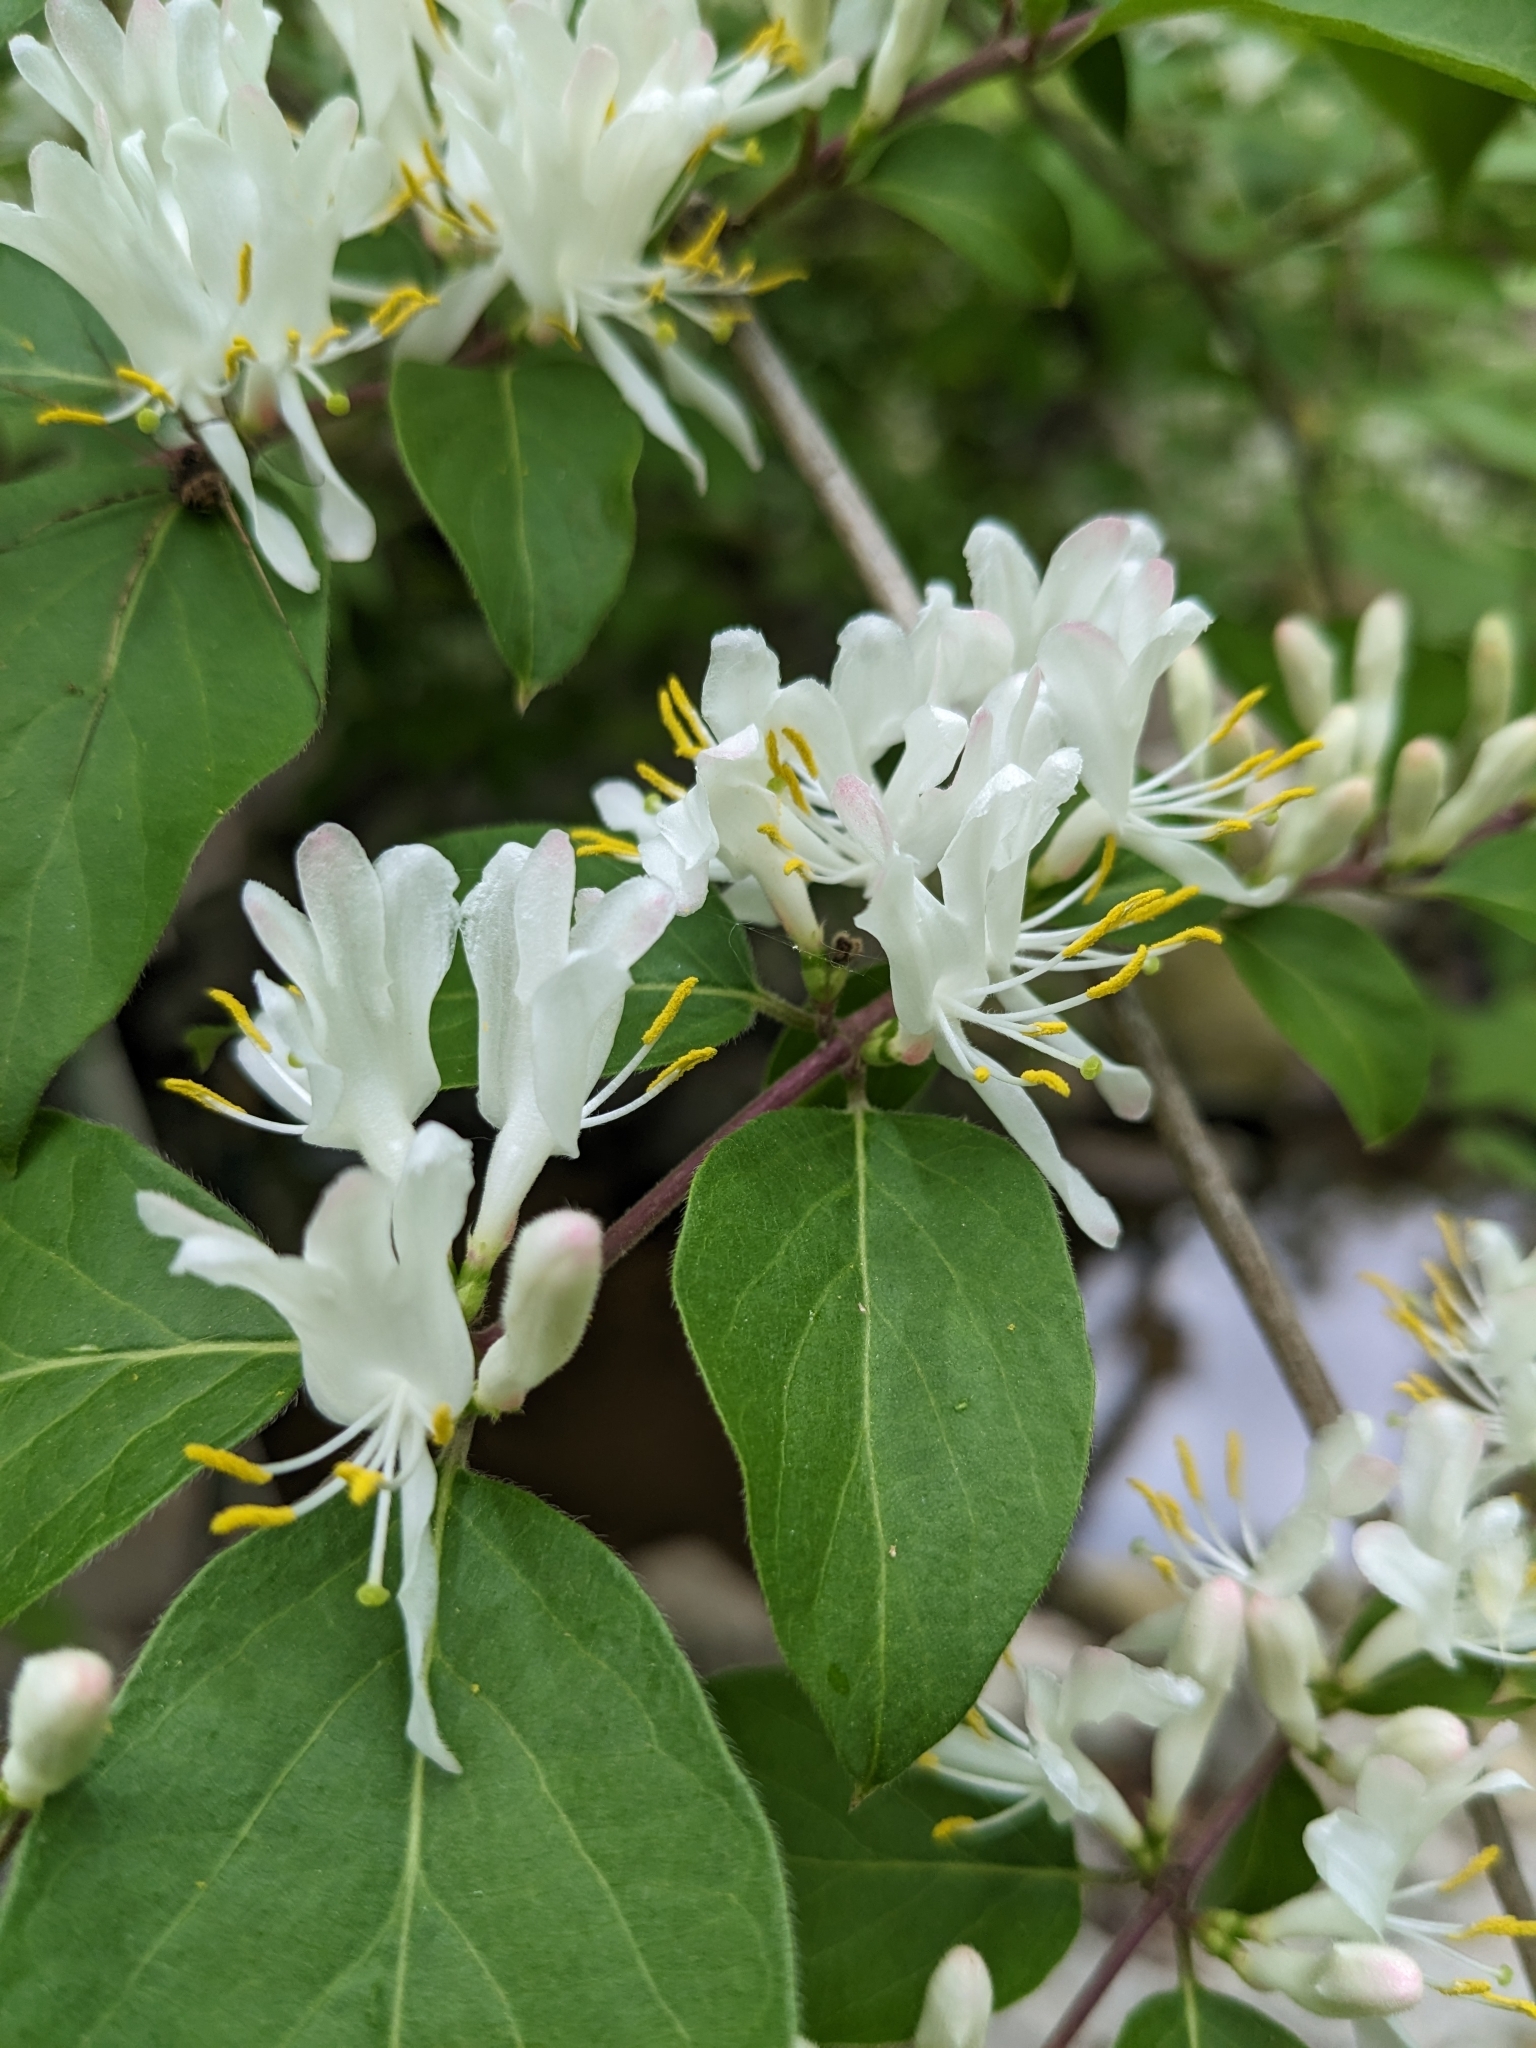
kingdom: Plantae
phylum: Tracheophyta
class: Magnoliopsida
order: Dipsacales
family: Caprifoliaceae
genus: Lonicera
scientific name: Lonicera maackii
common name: Amur honeysuckle
